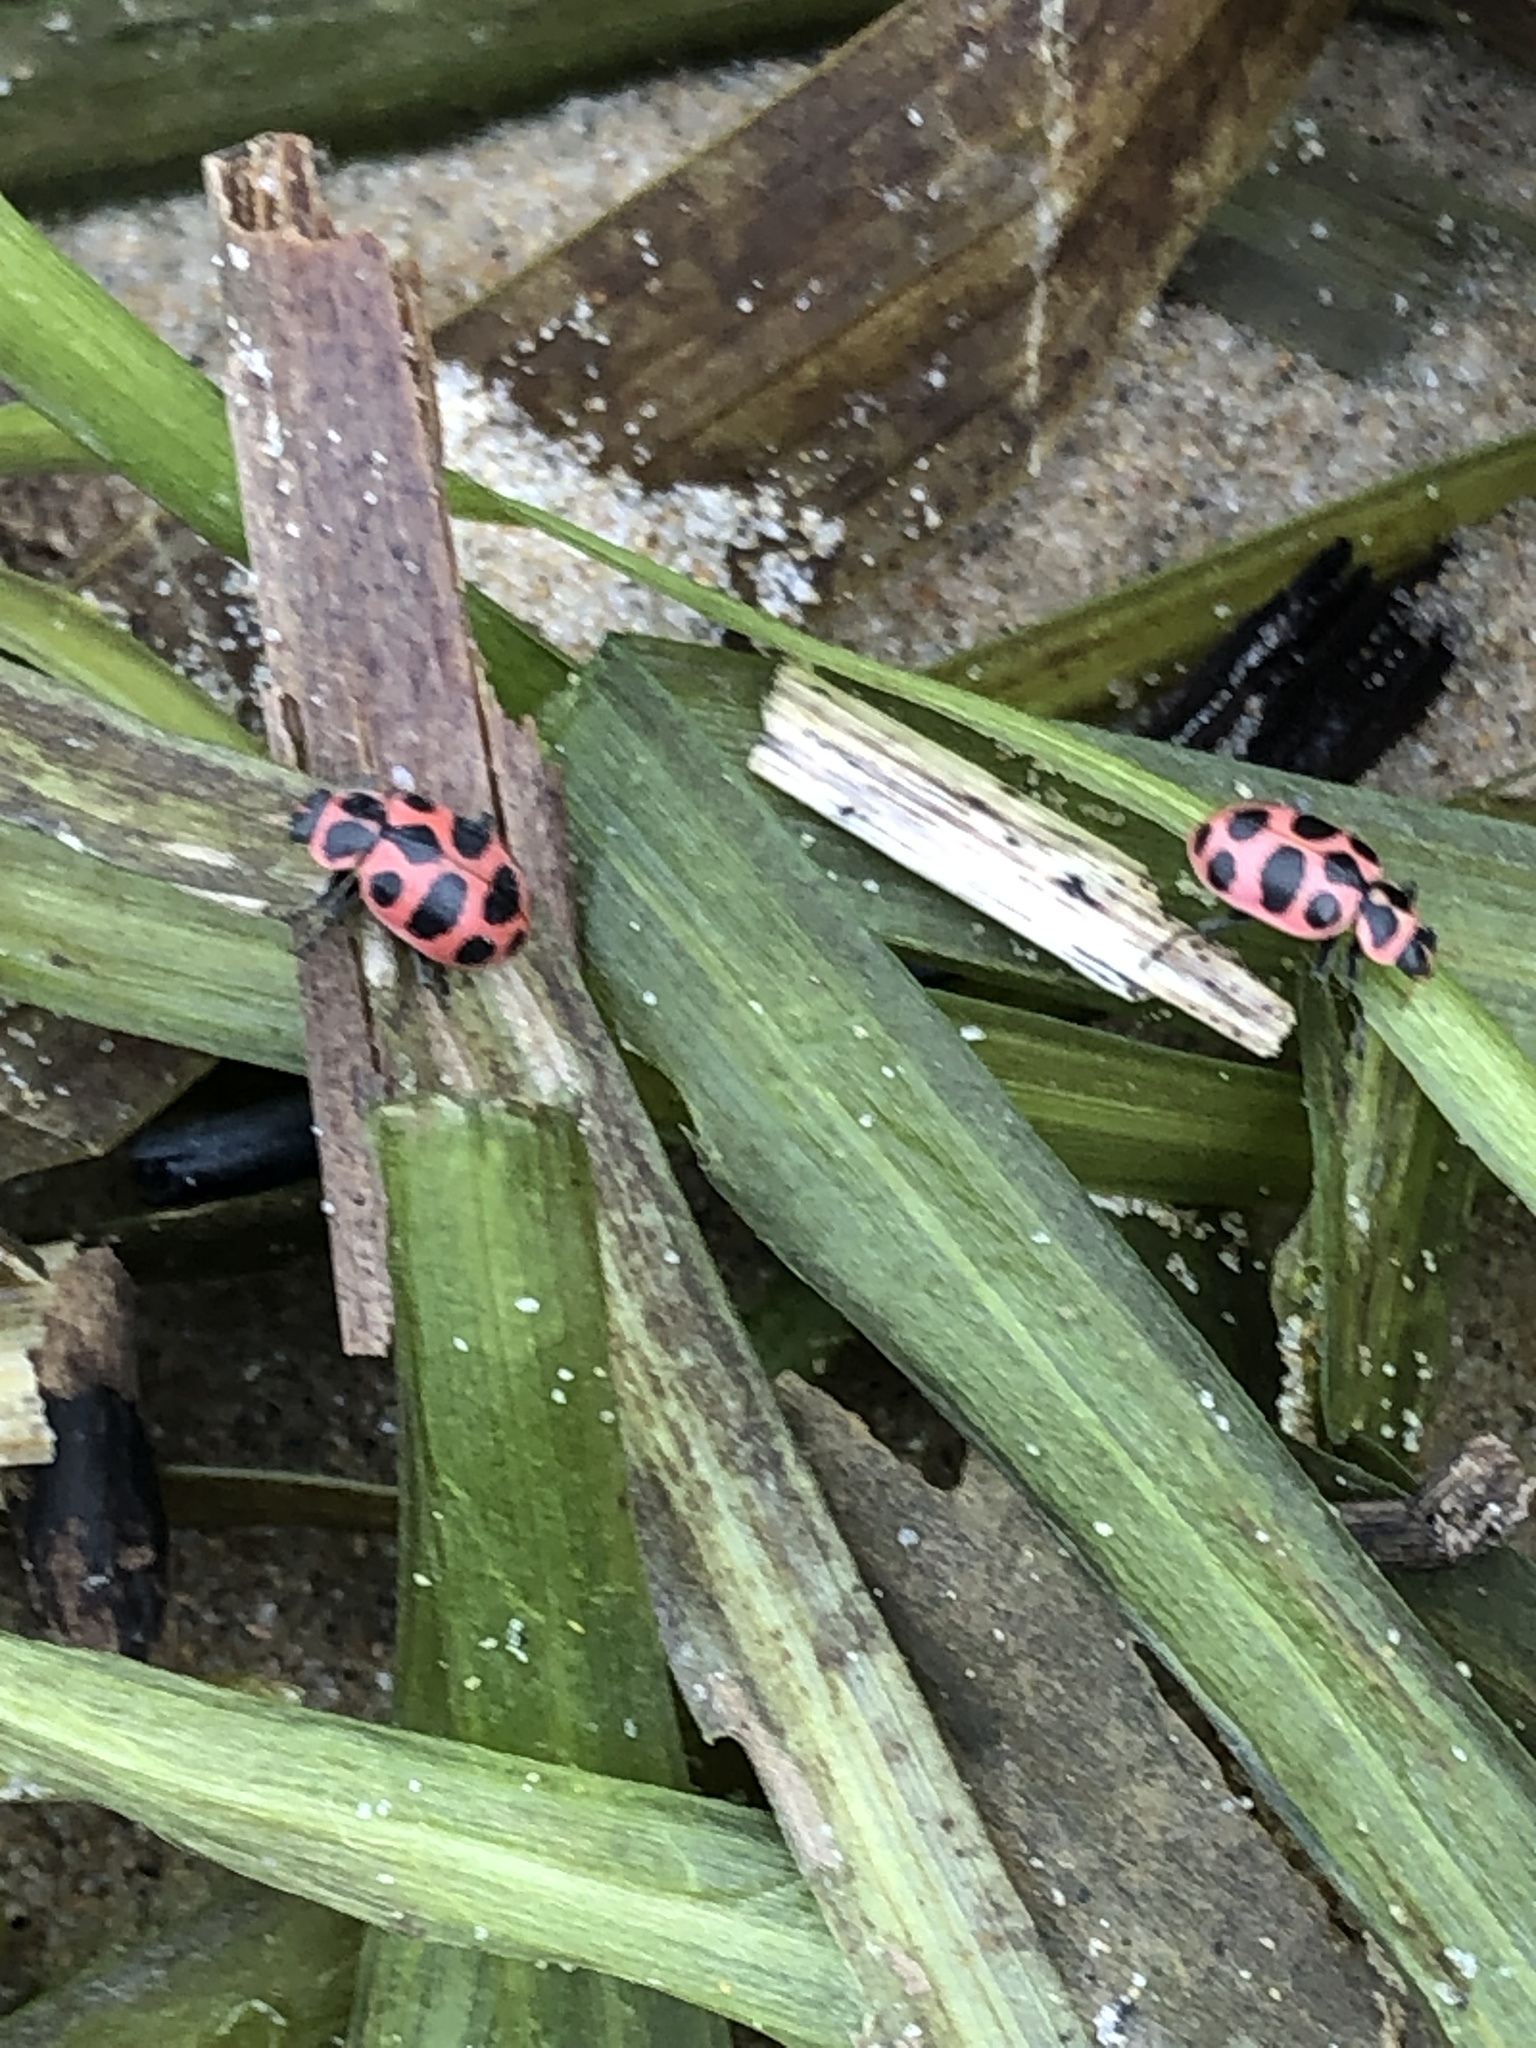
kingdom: Animalia
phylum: Arthropoda
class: Insecta
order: Coleoptera
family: Coccinellidae
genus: Coleomegilla
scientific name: Coleomegilla maculata
